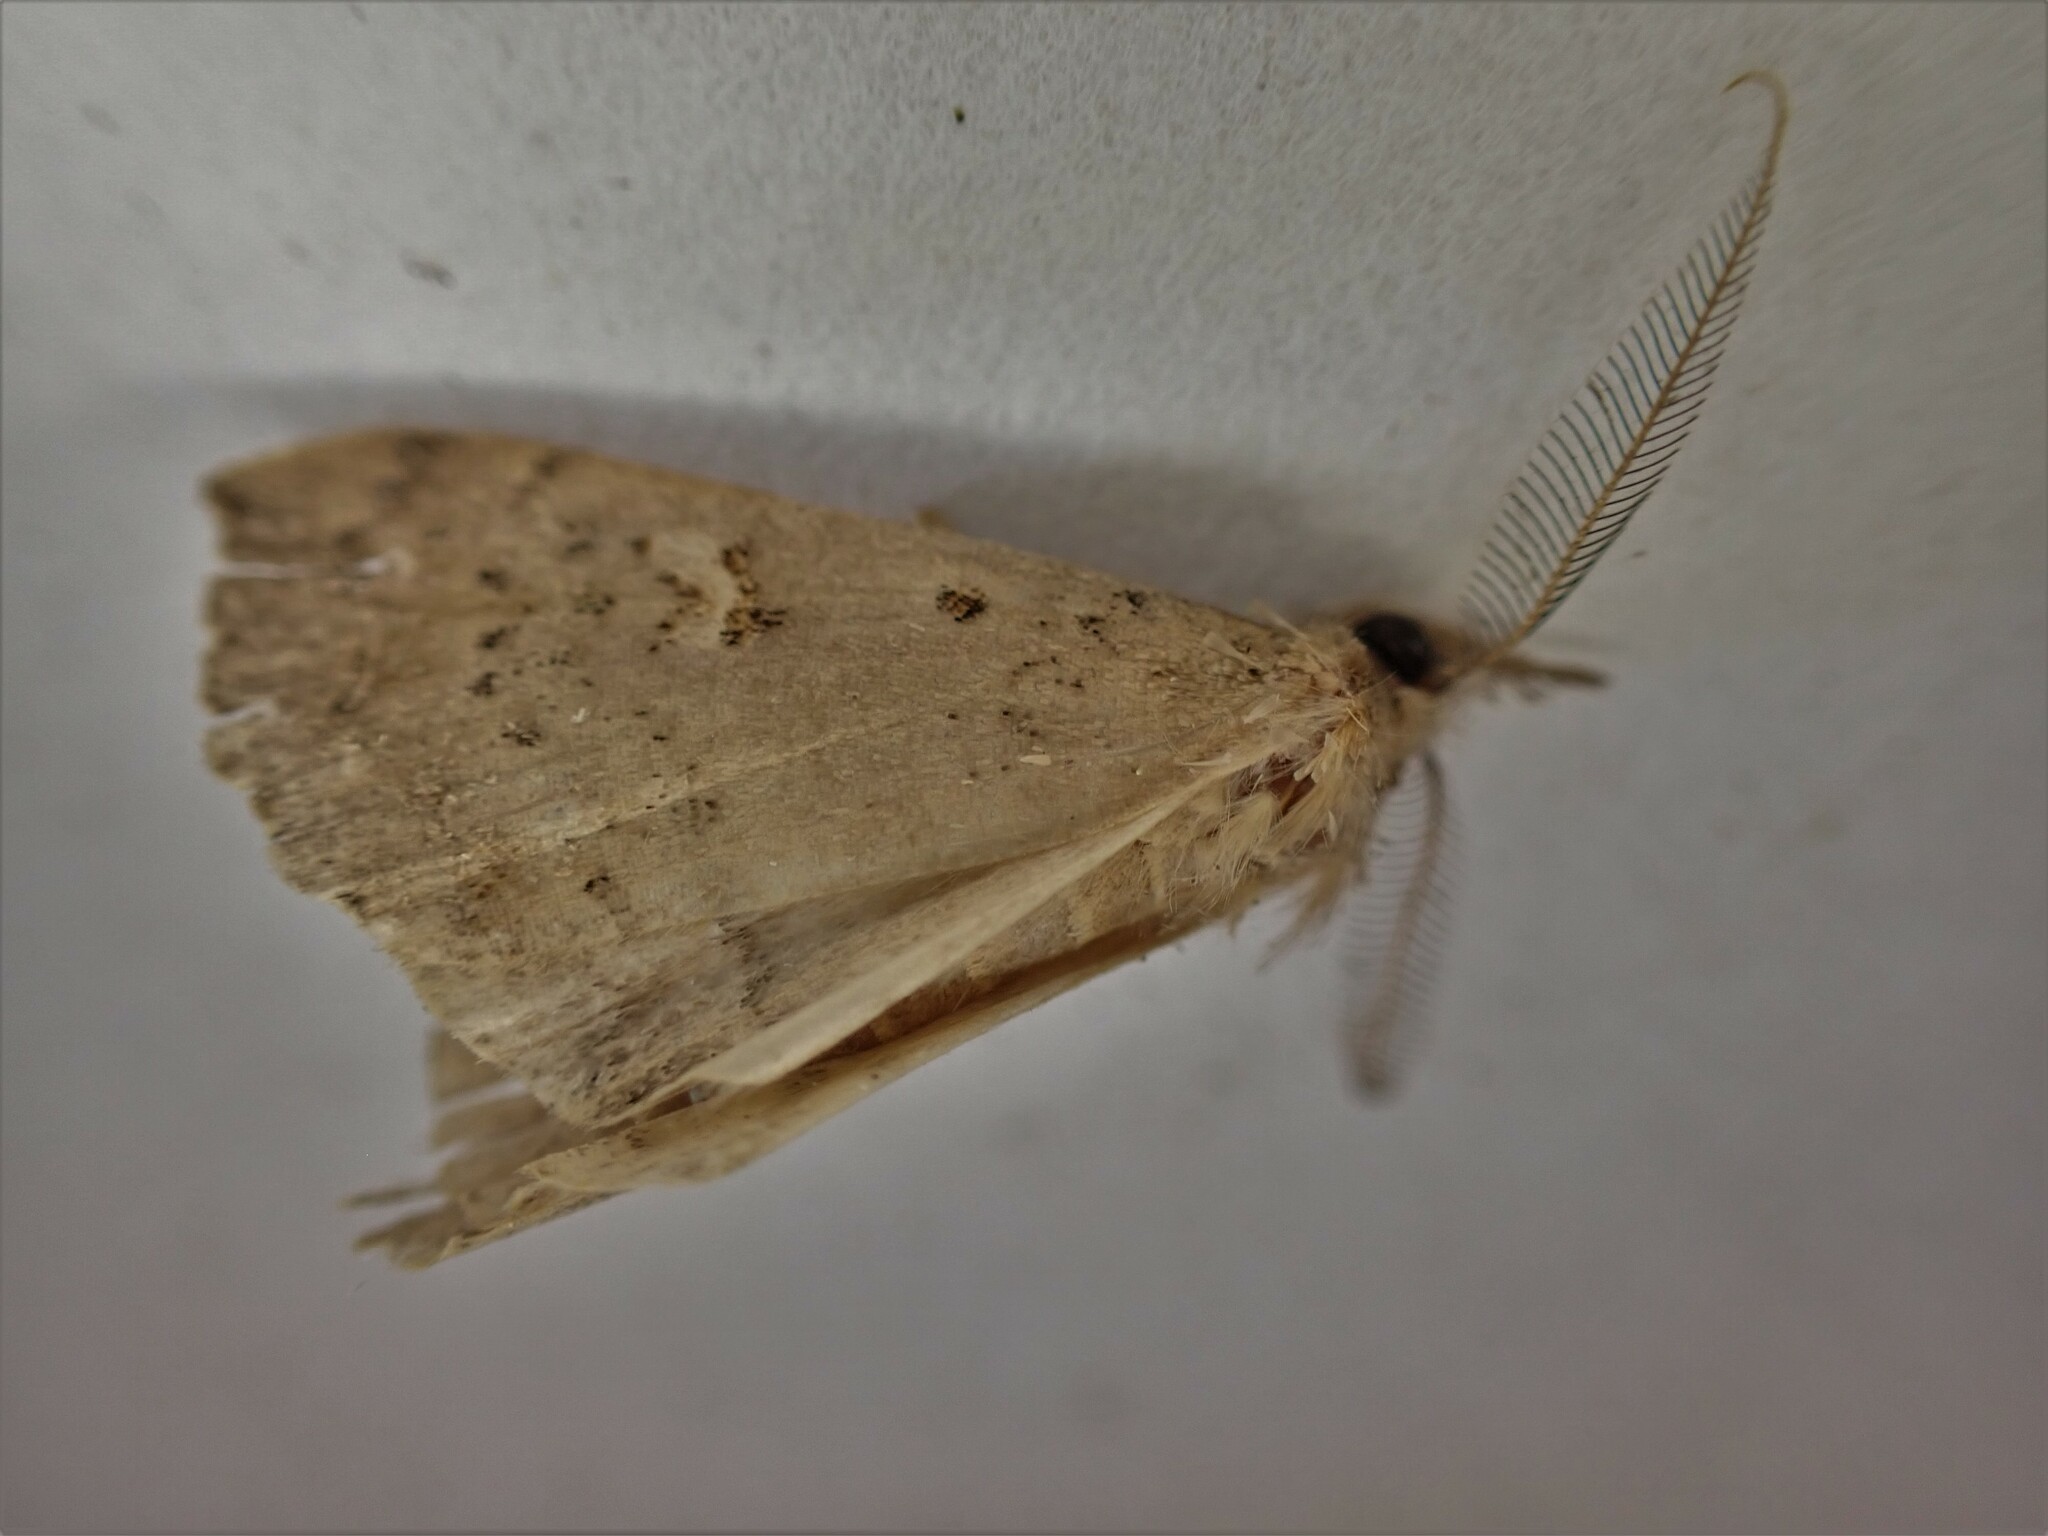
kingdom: Animalia
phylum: Arthropoda
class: Insecta
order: Lepidoptera
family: Erebidae
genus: Rhapsa
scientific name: Rhapsa scotosialis
